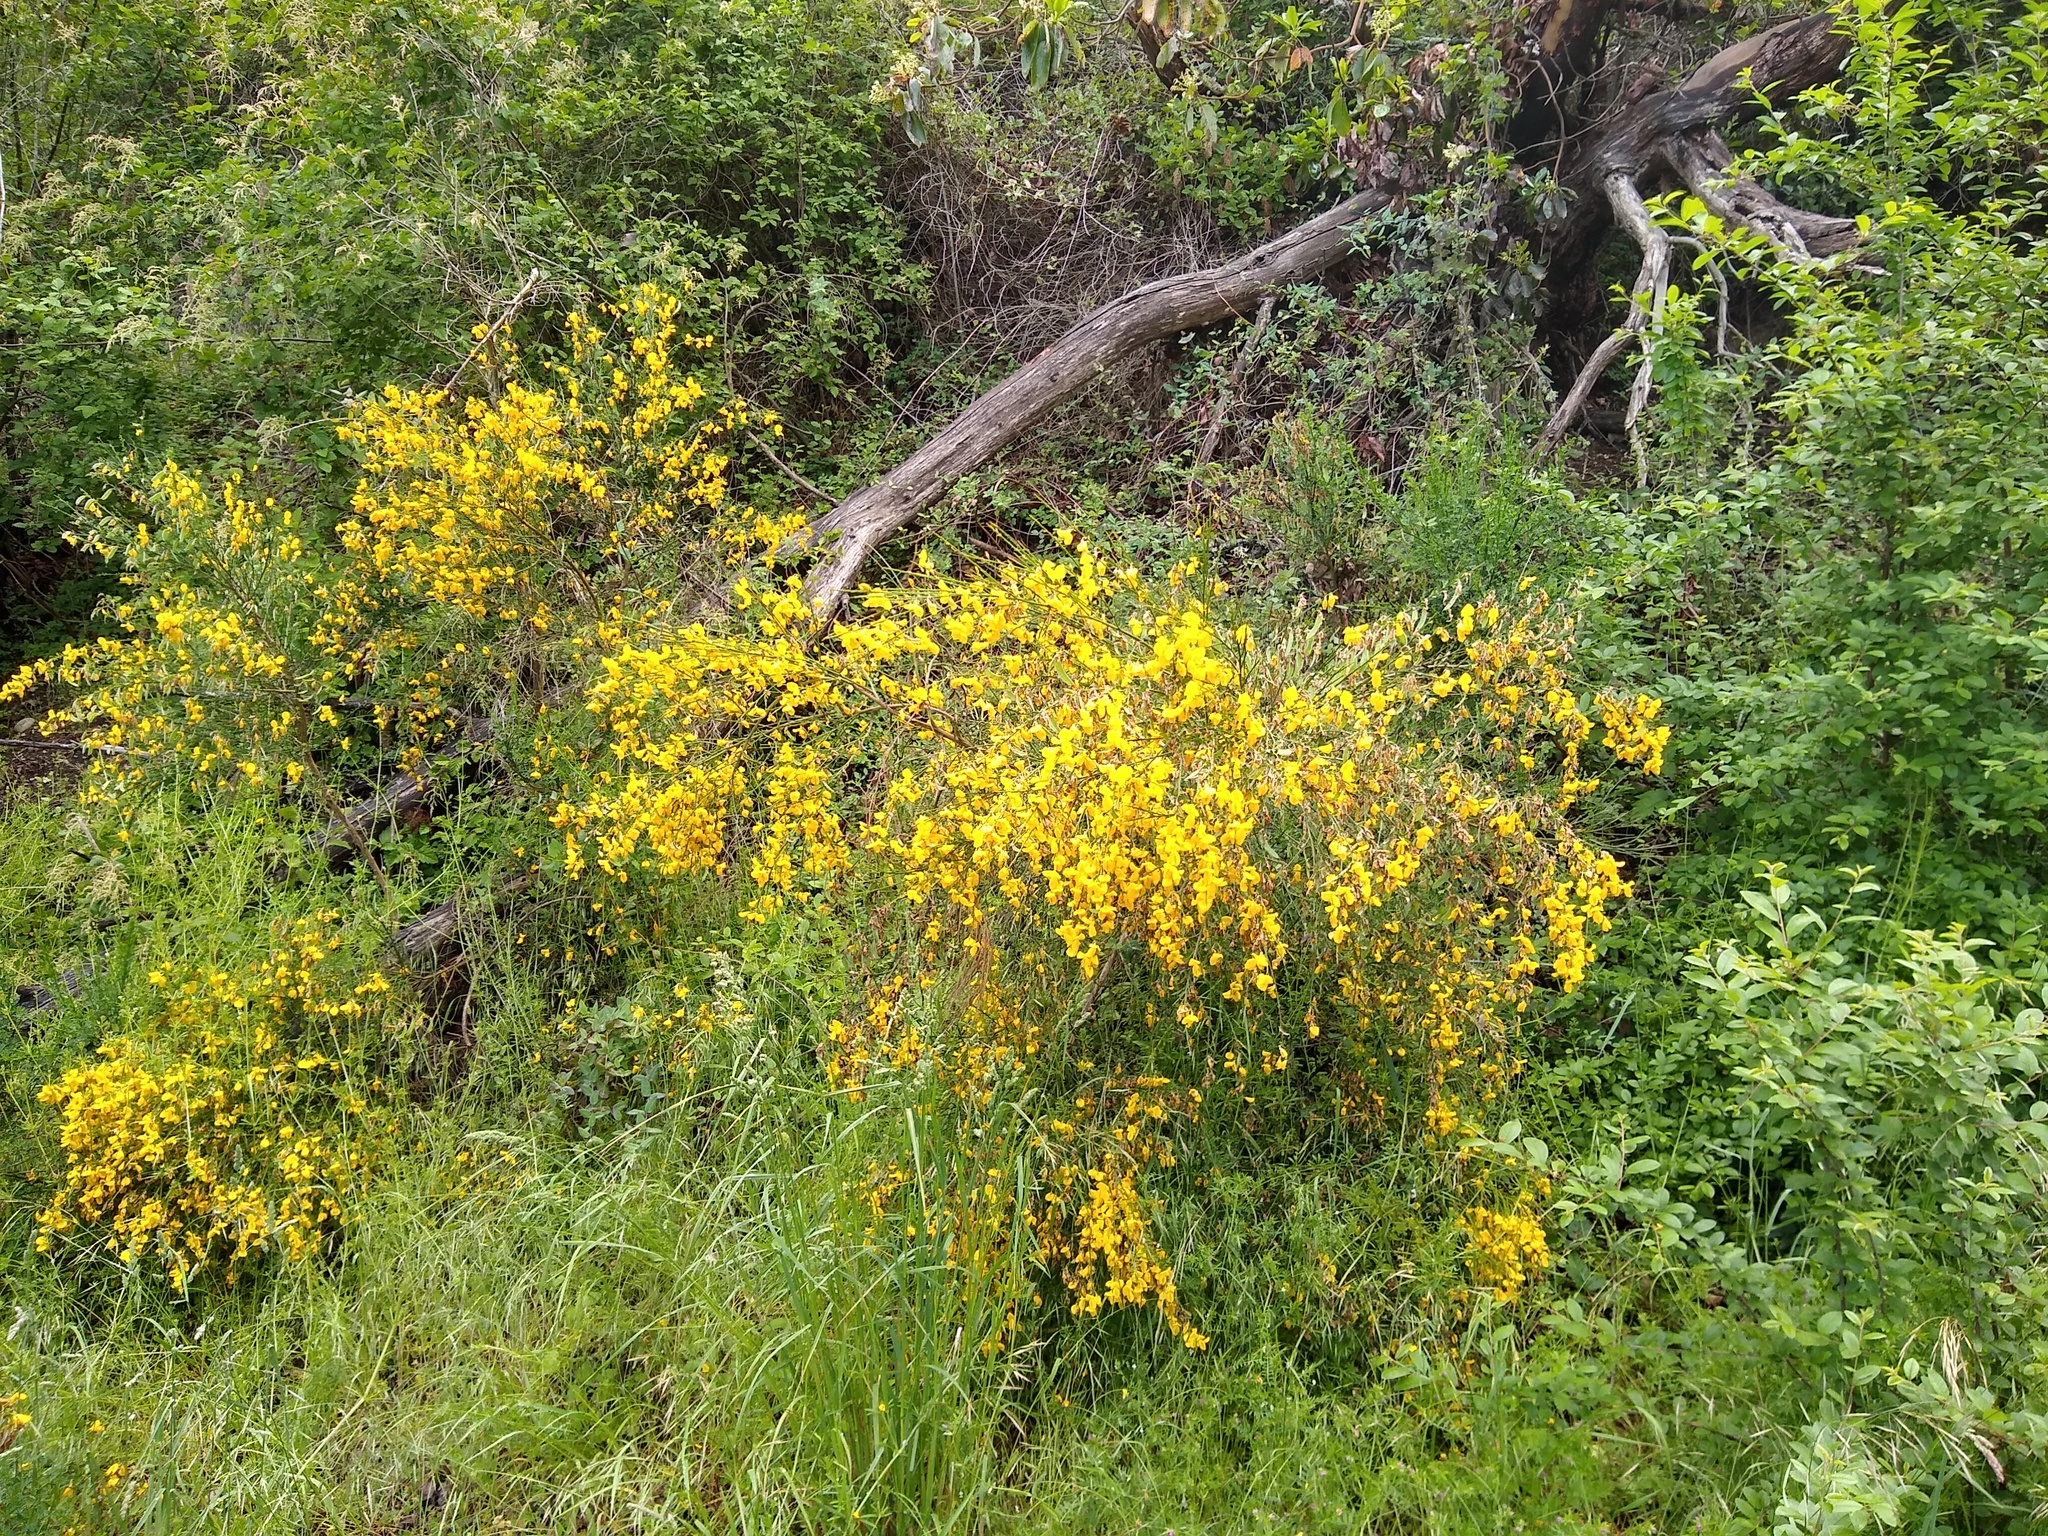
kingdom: Plantae
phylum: Tracheophyta
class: Magnoliopsida
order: Fabales
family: Fabaceae
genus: Cytisus
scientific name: Cytisus scoparius
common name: Scotch broom
